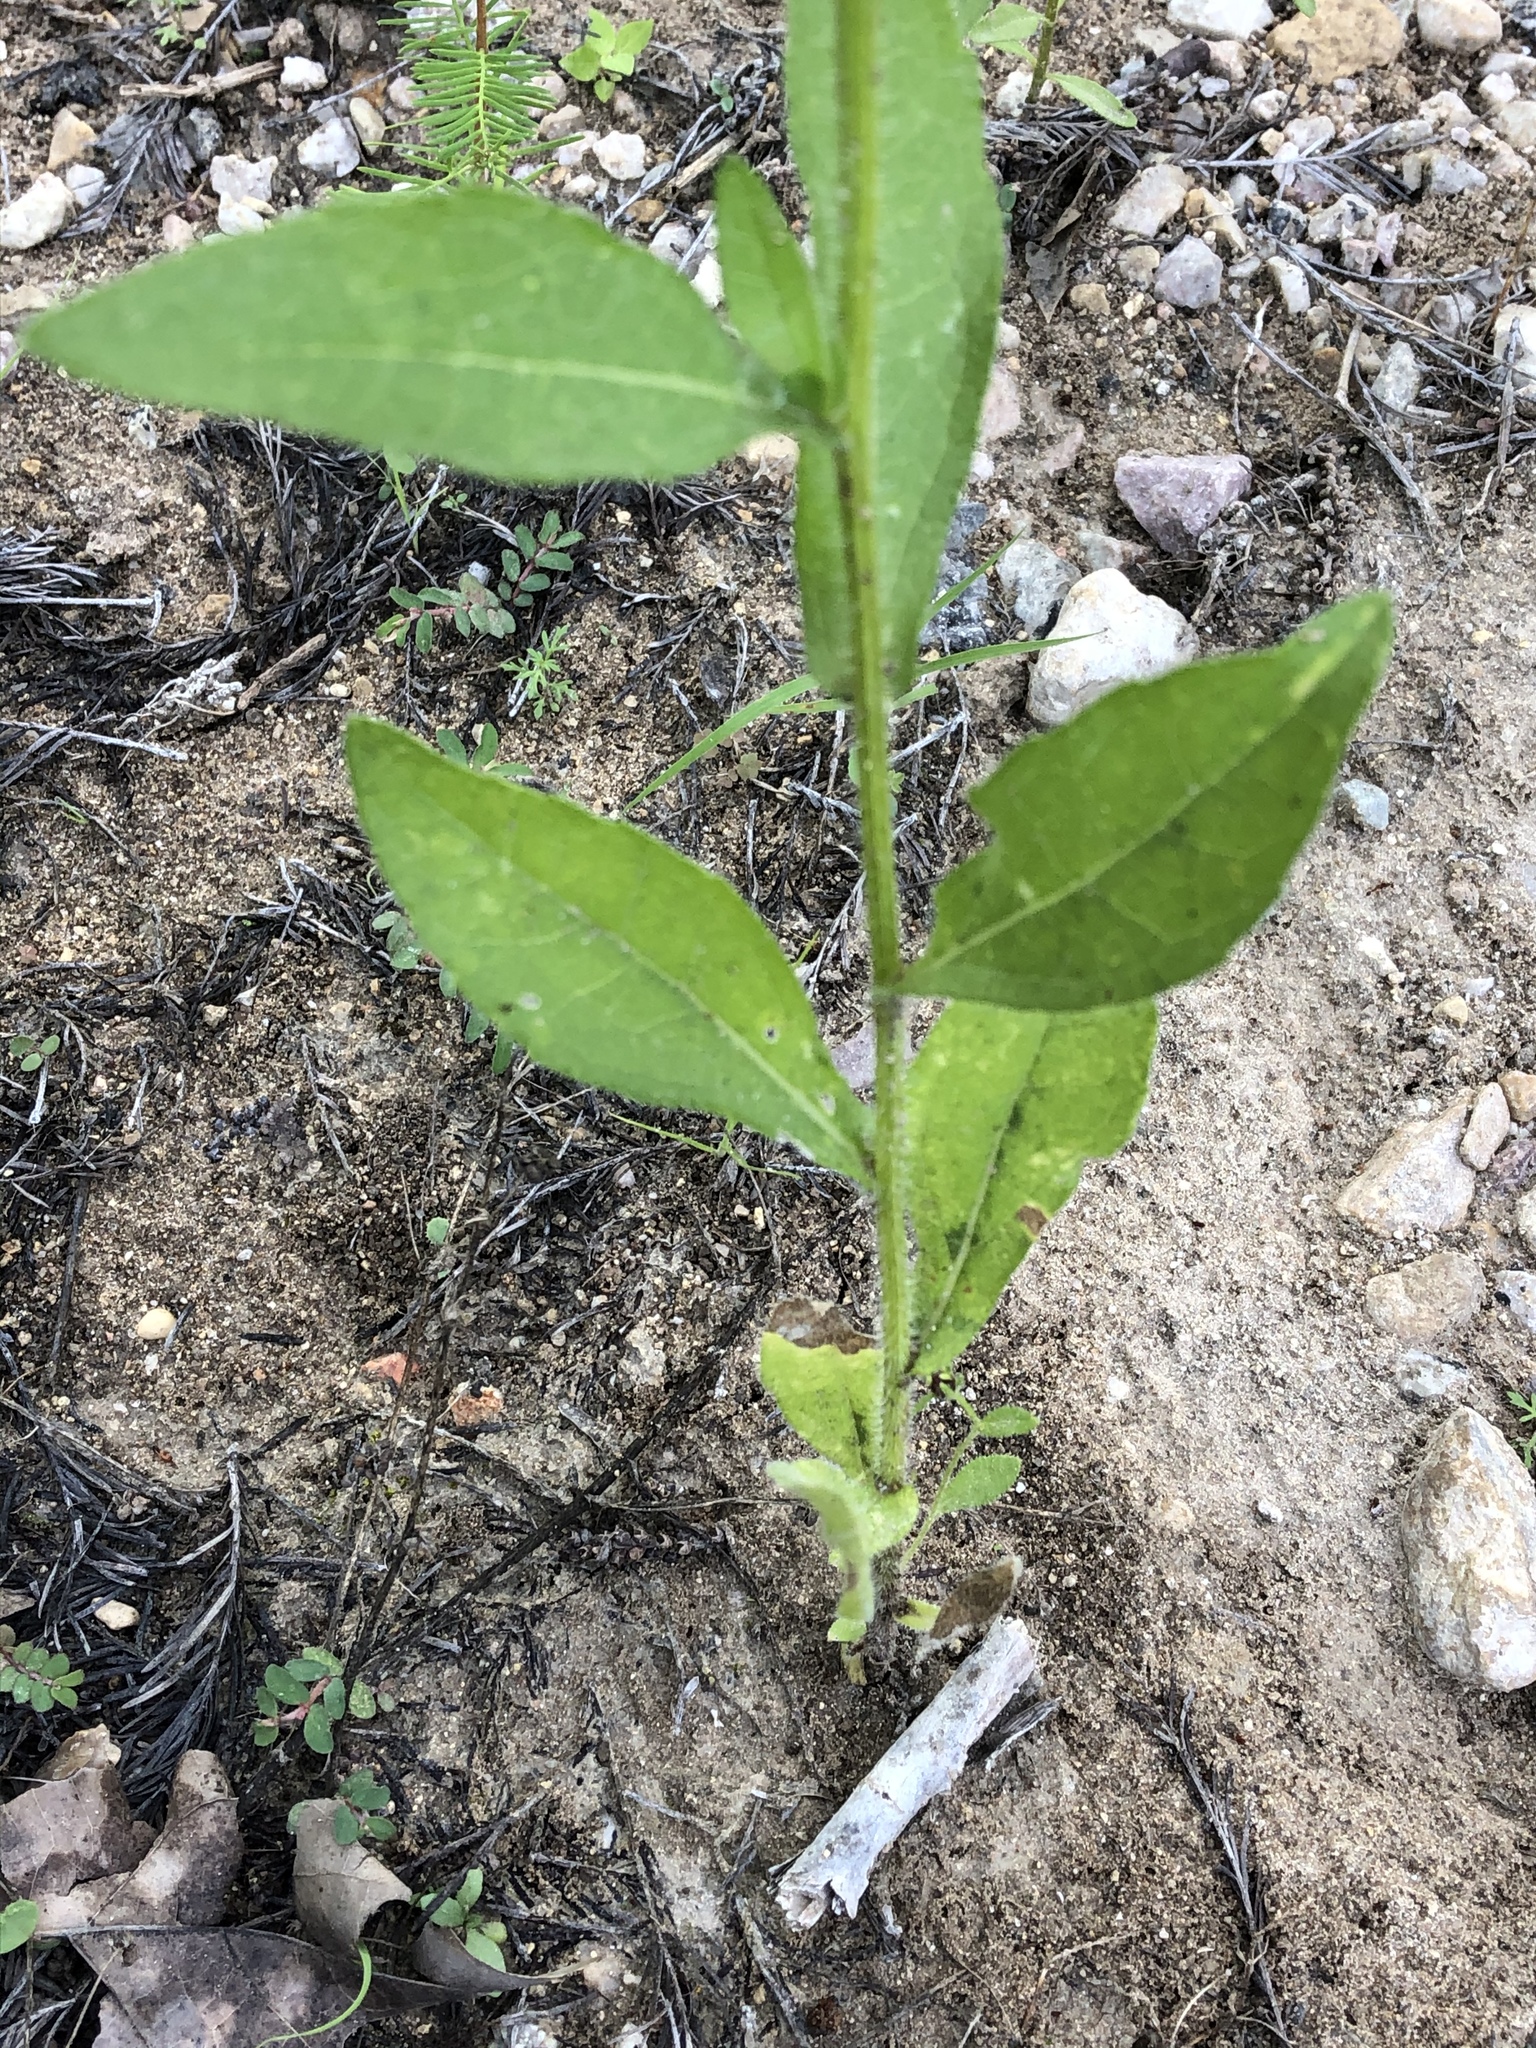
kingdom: Plantae
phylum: Tracheophyta
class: Magnoliopsida
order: Asterales
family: Asteraceae
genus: Rudbeckia
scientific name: Rudbeckia hirta
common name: Black-eyed-susan
